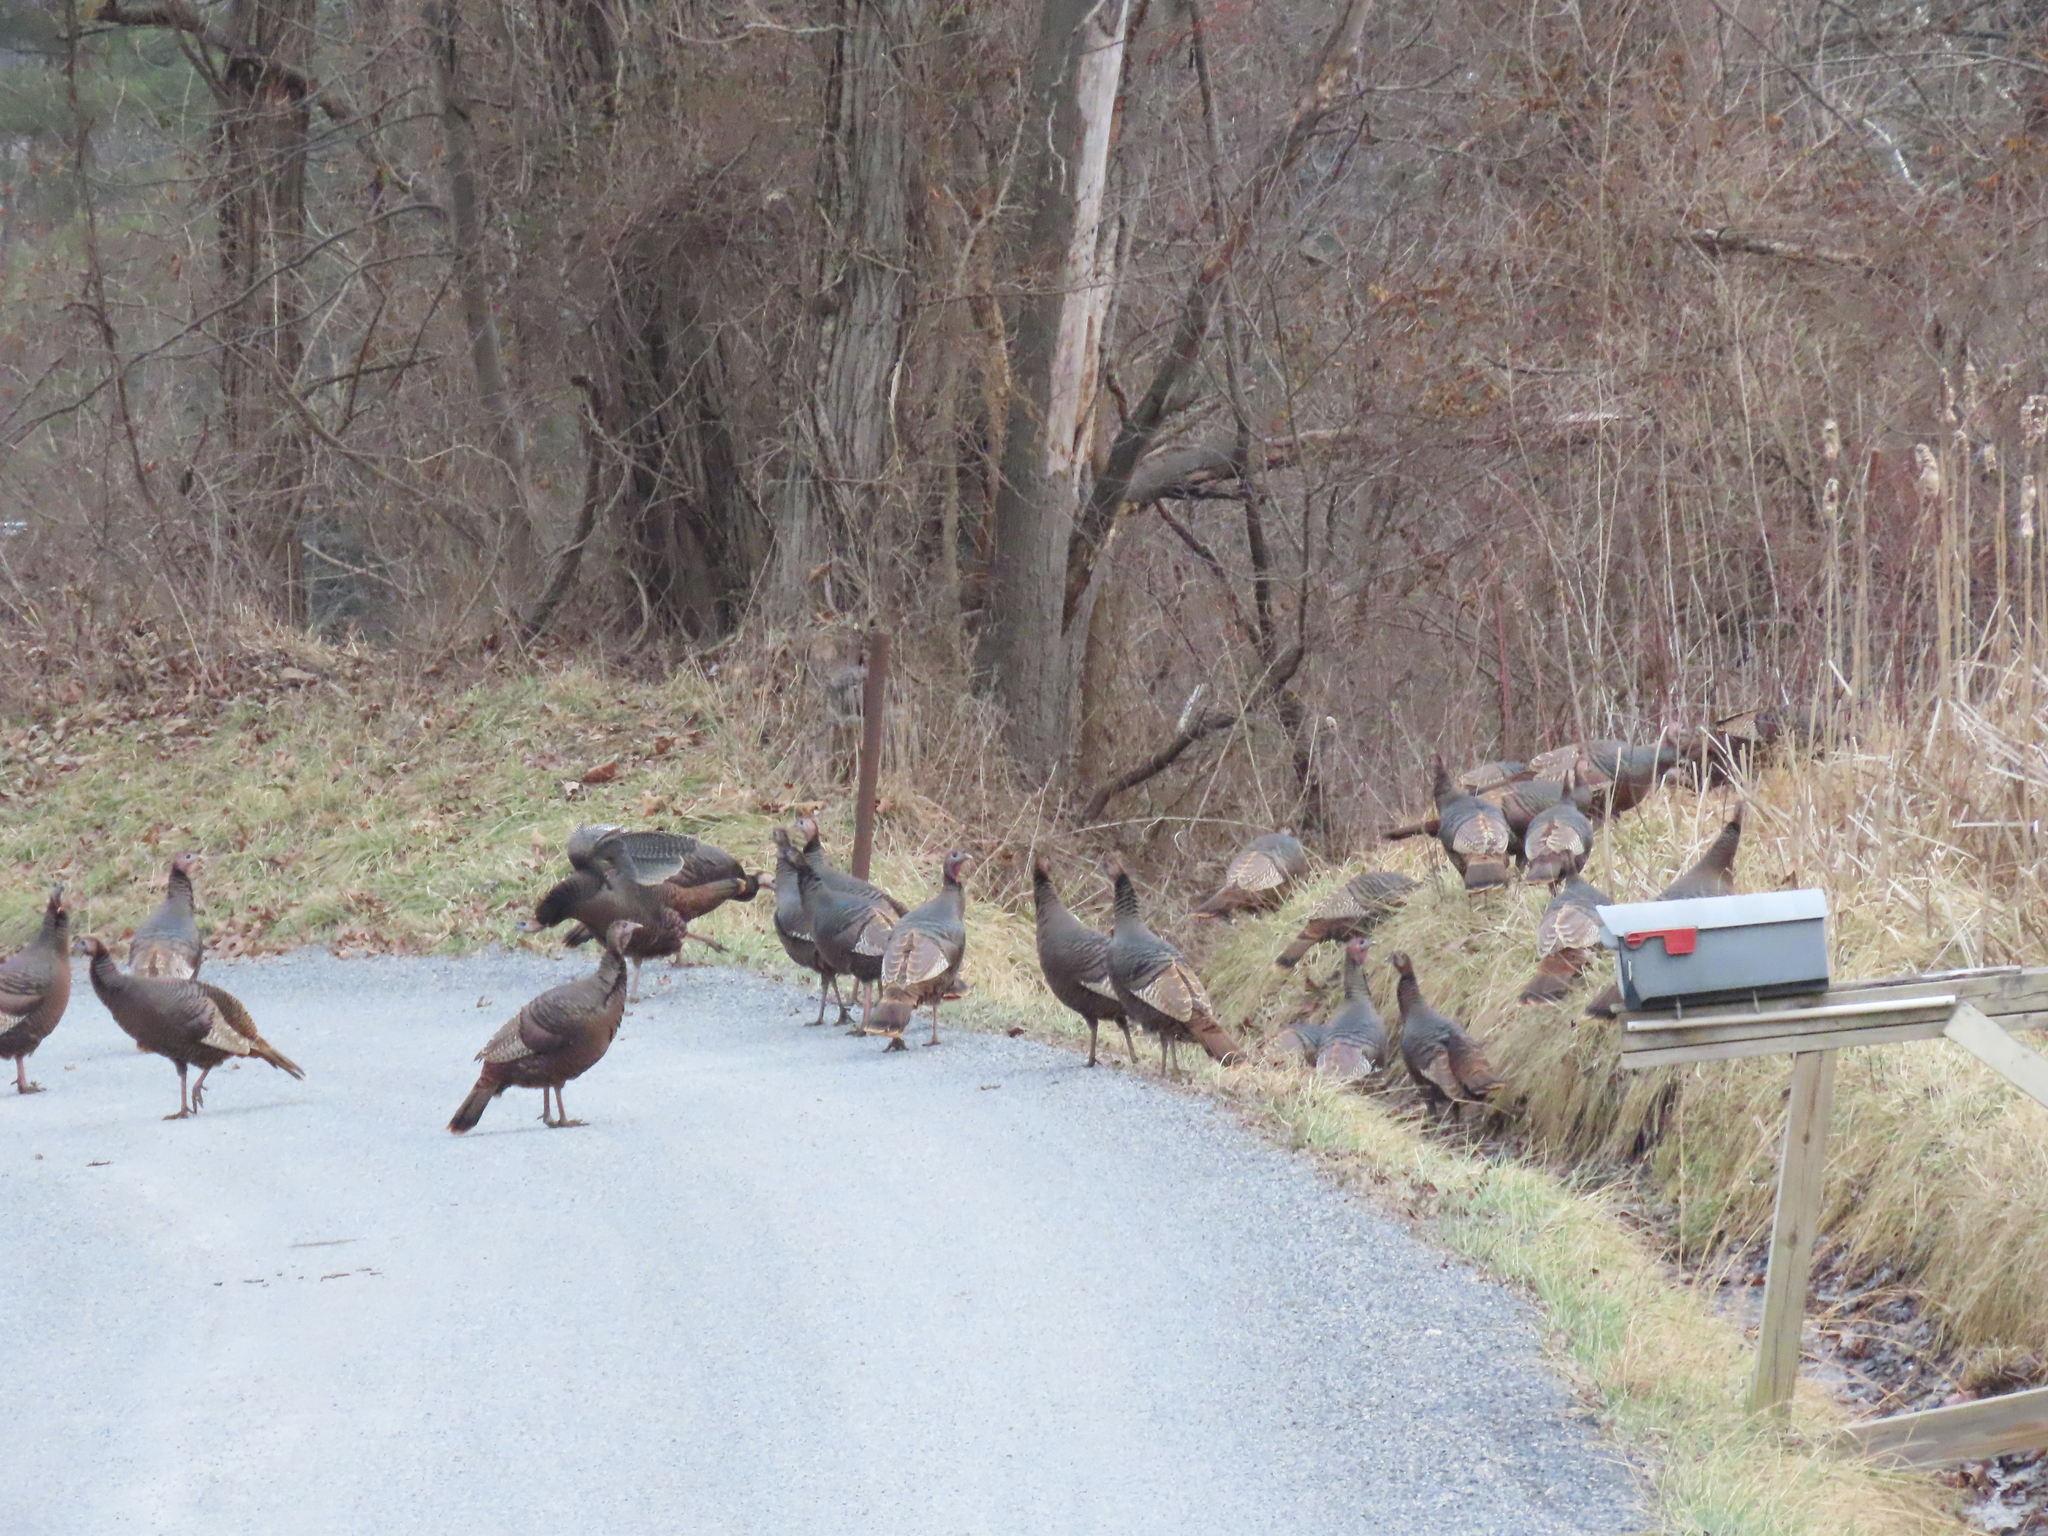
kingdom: Animalia
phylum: Chordata
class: Aves
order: Galliformes
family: Phasianidae
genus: Meleagris
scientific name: Meleagris gallopavo
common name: Wild turkey
